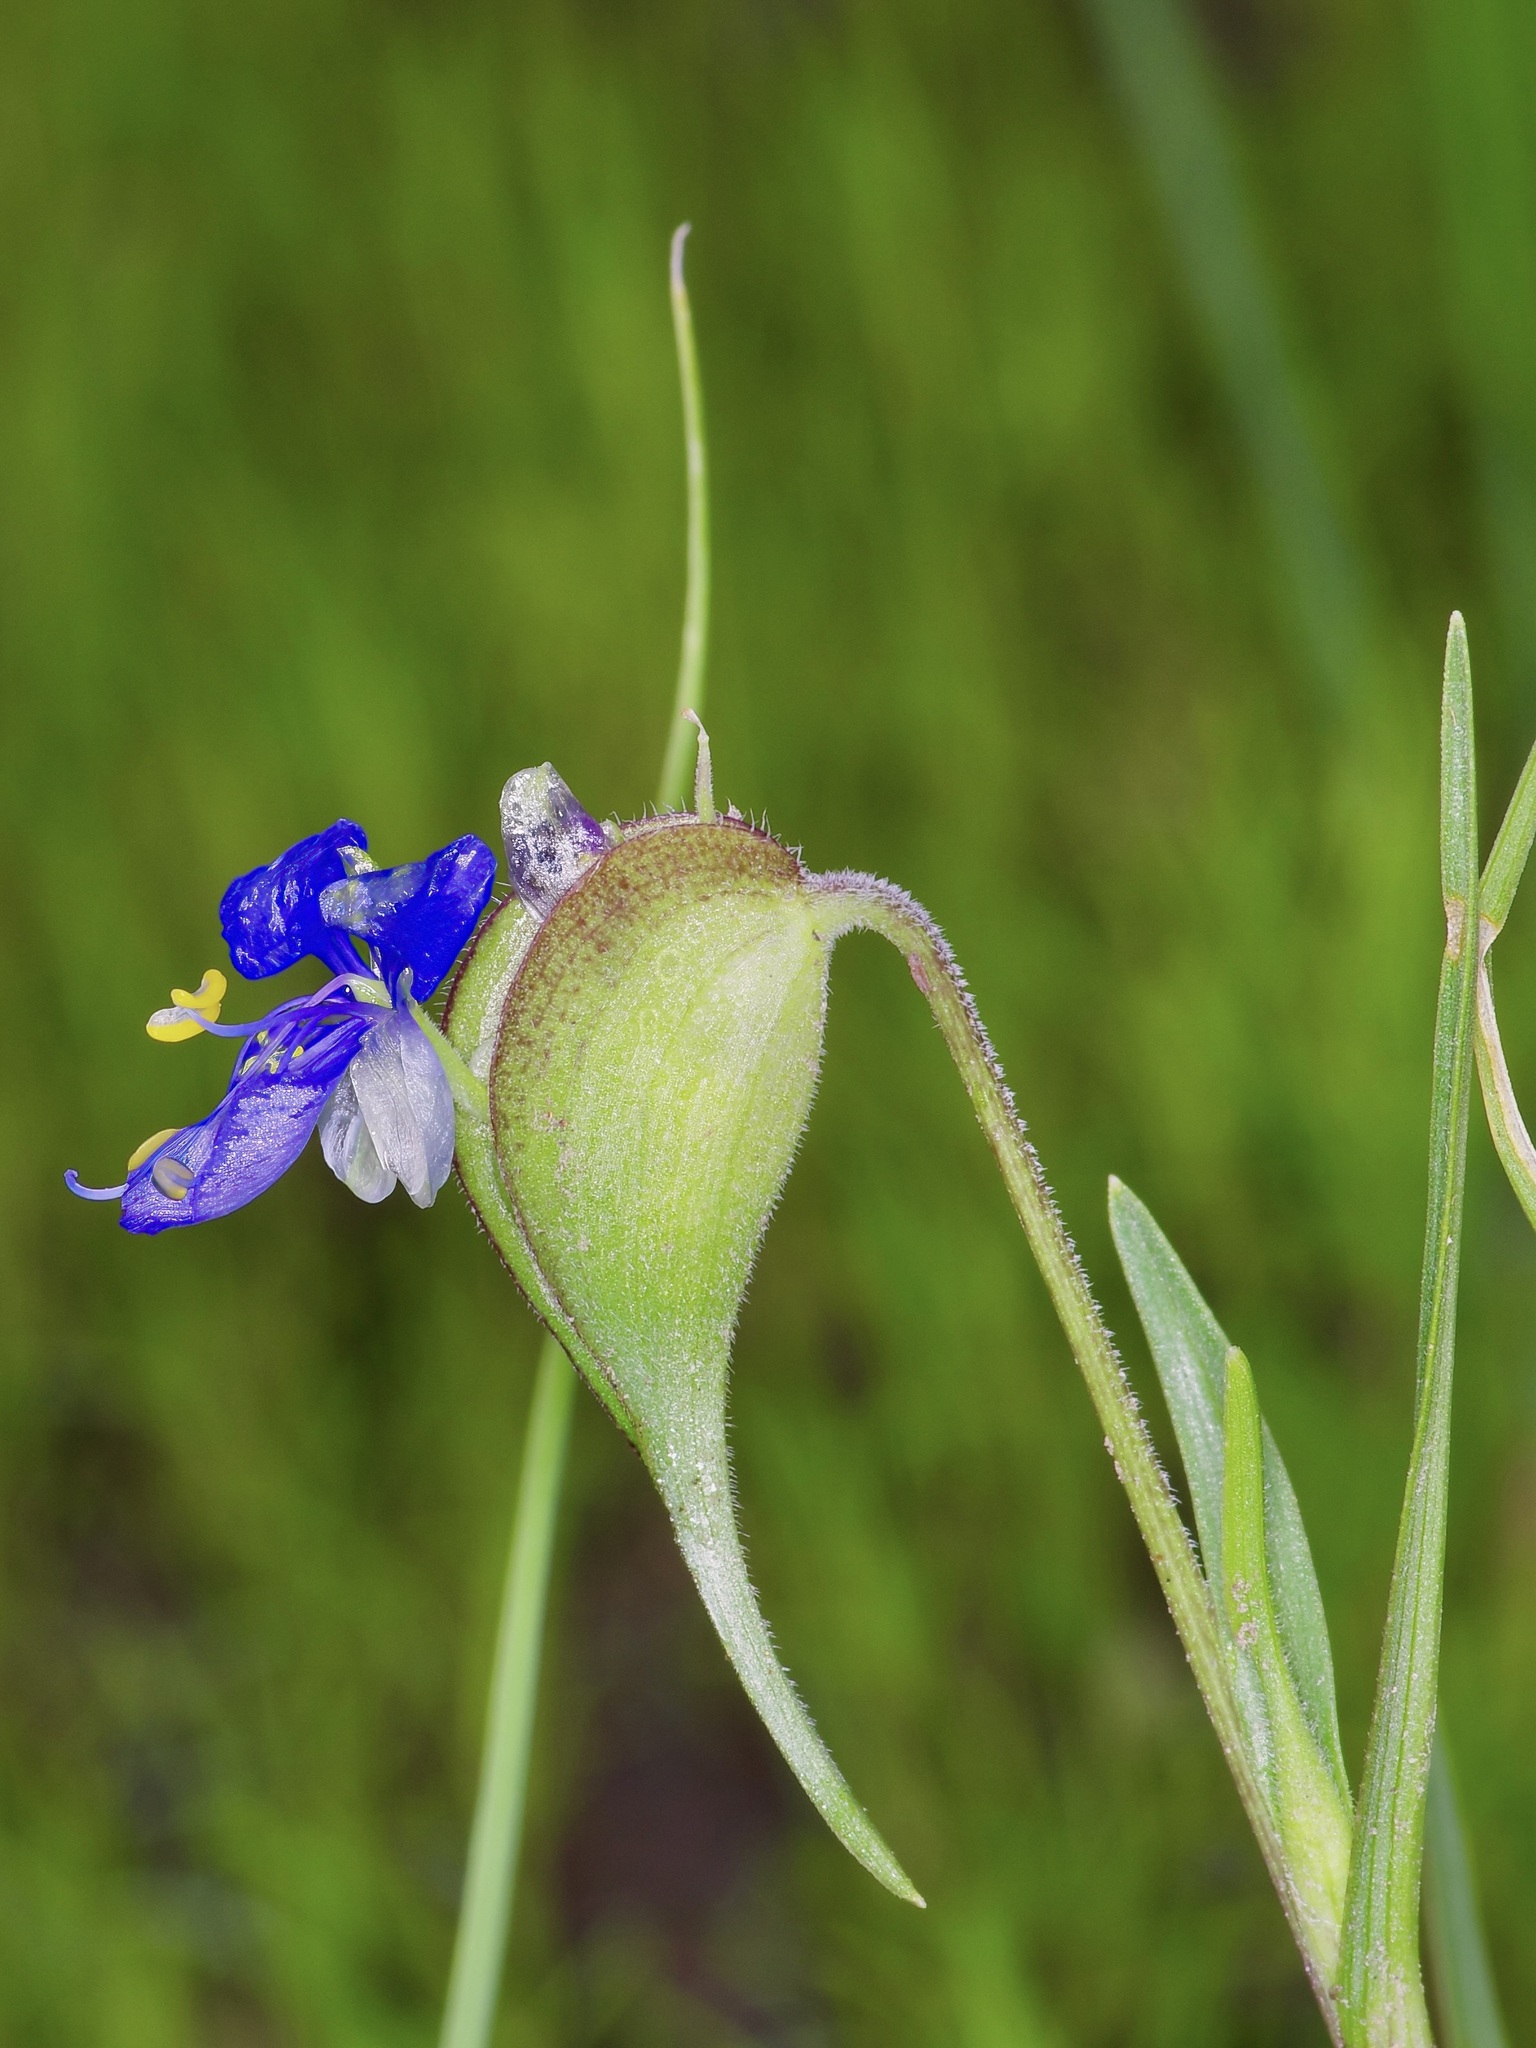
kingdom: Plantae
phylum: Tracheophyta
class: Liliopsida
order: Commelinales
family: Commelinaceae
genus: Commelina
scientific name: Commelina dianthifolia
